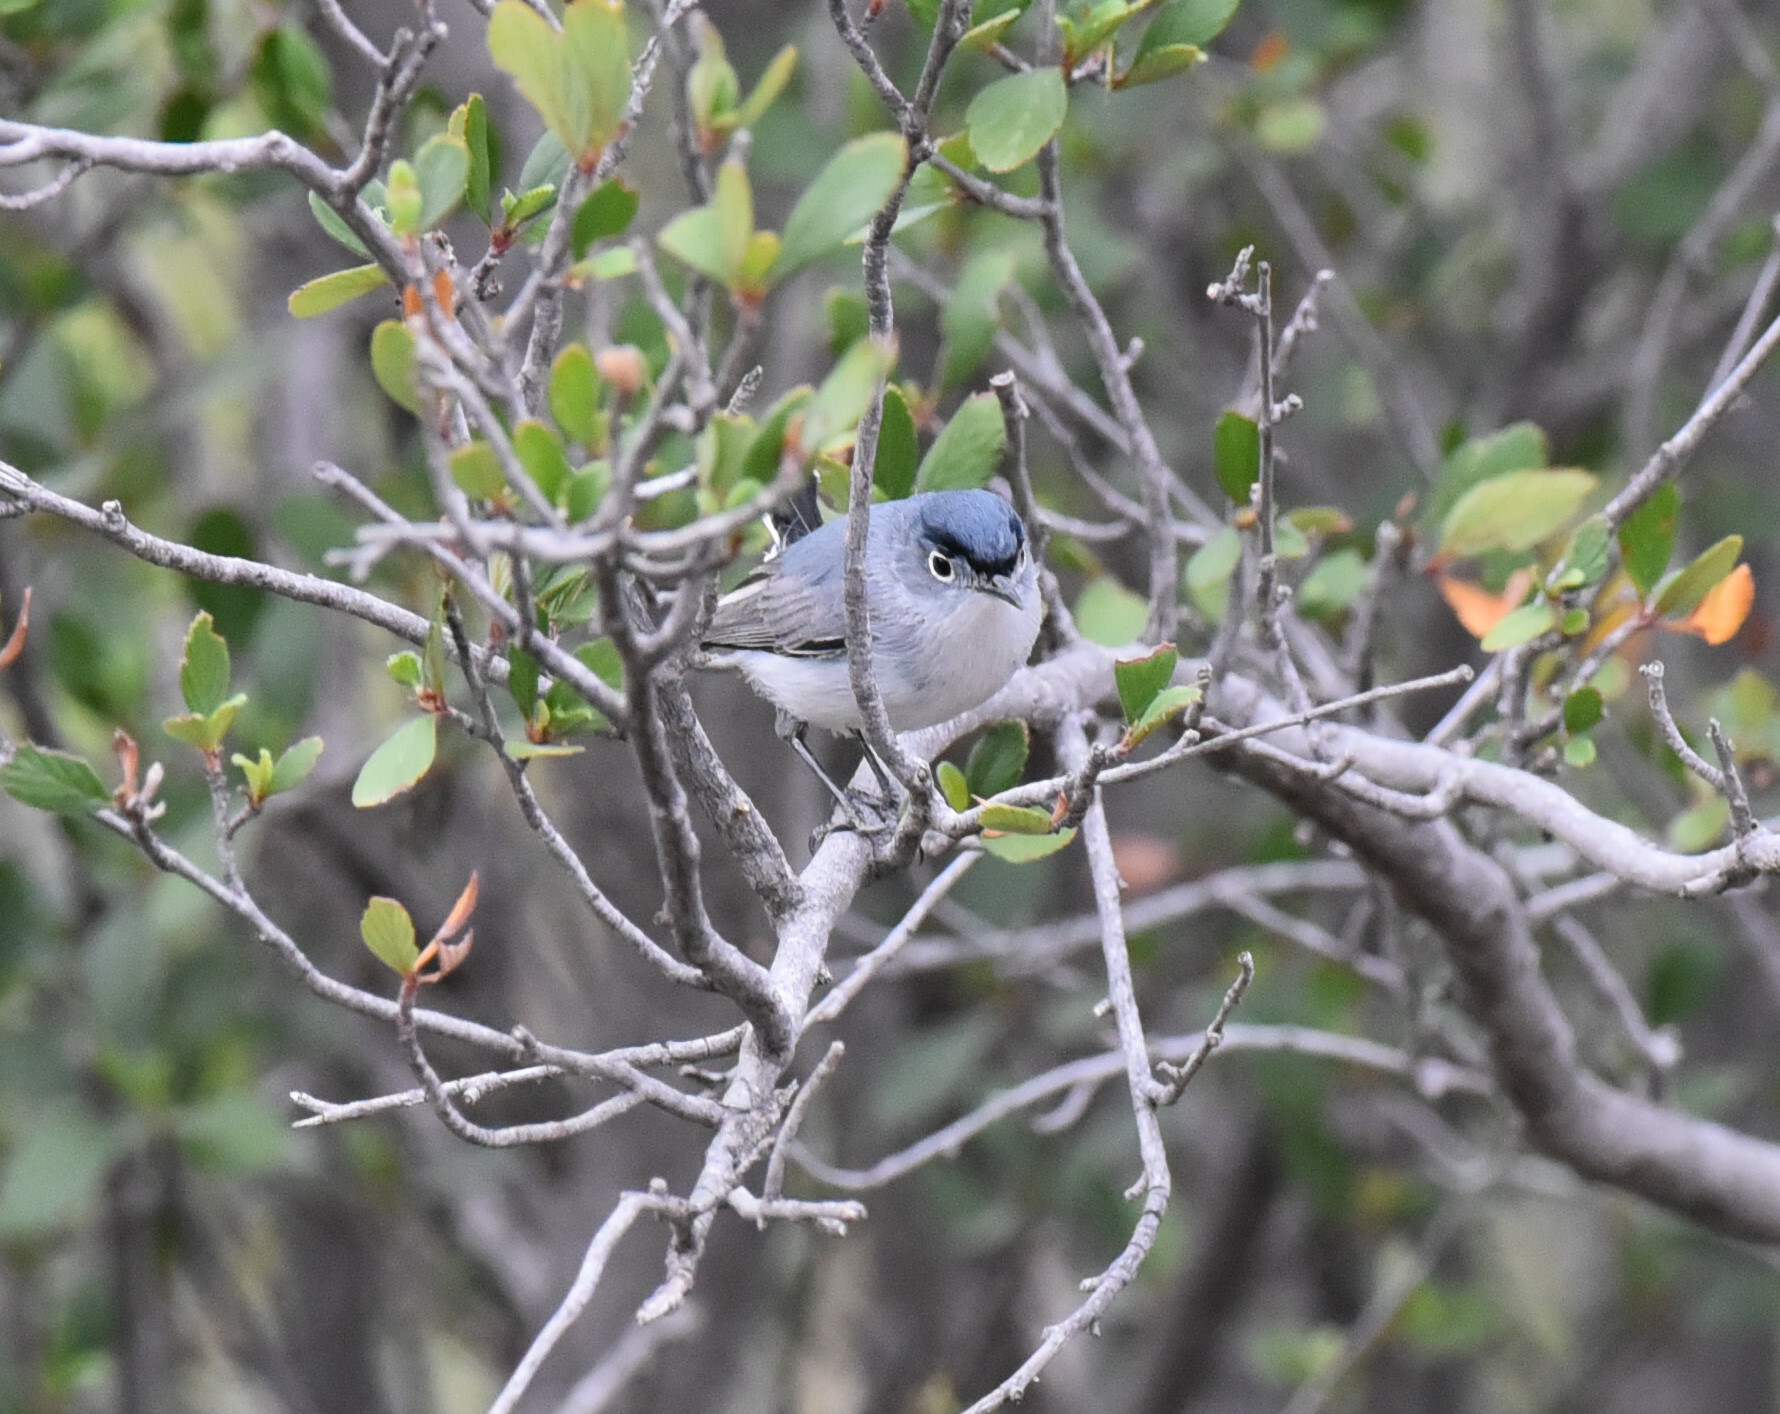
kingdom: Animalia
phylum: Chordata
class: Aves
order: Passeriformes
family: Polioptilidae
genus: Polioptila
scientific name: Polioptila caerulea
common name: Blue-gray gnatcatcher
